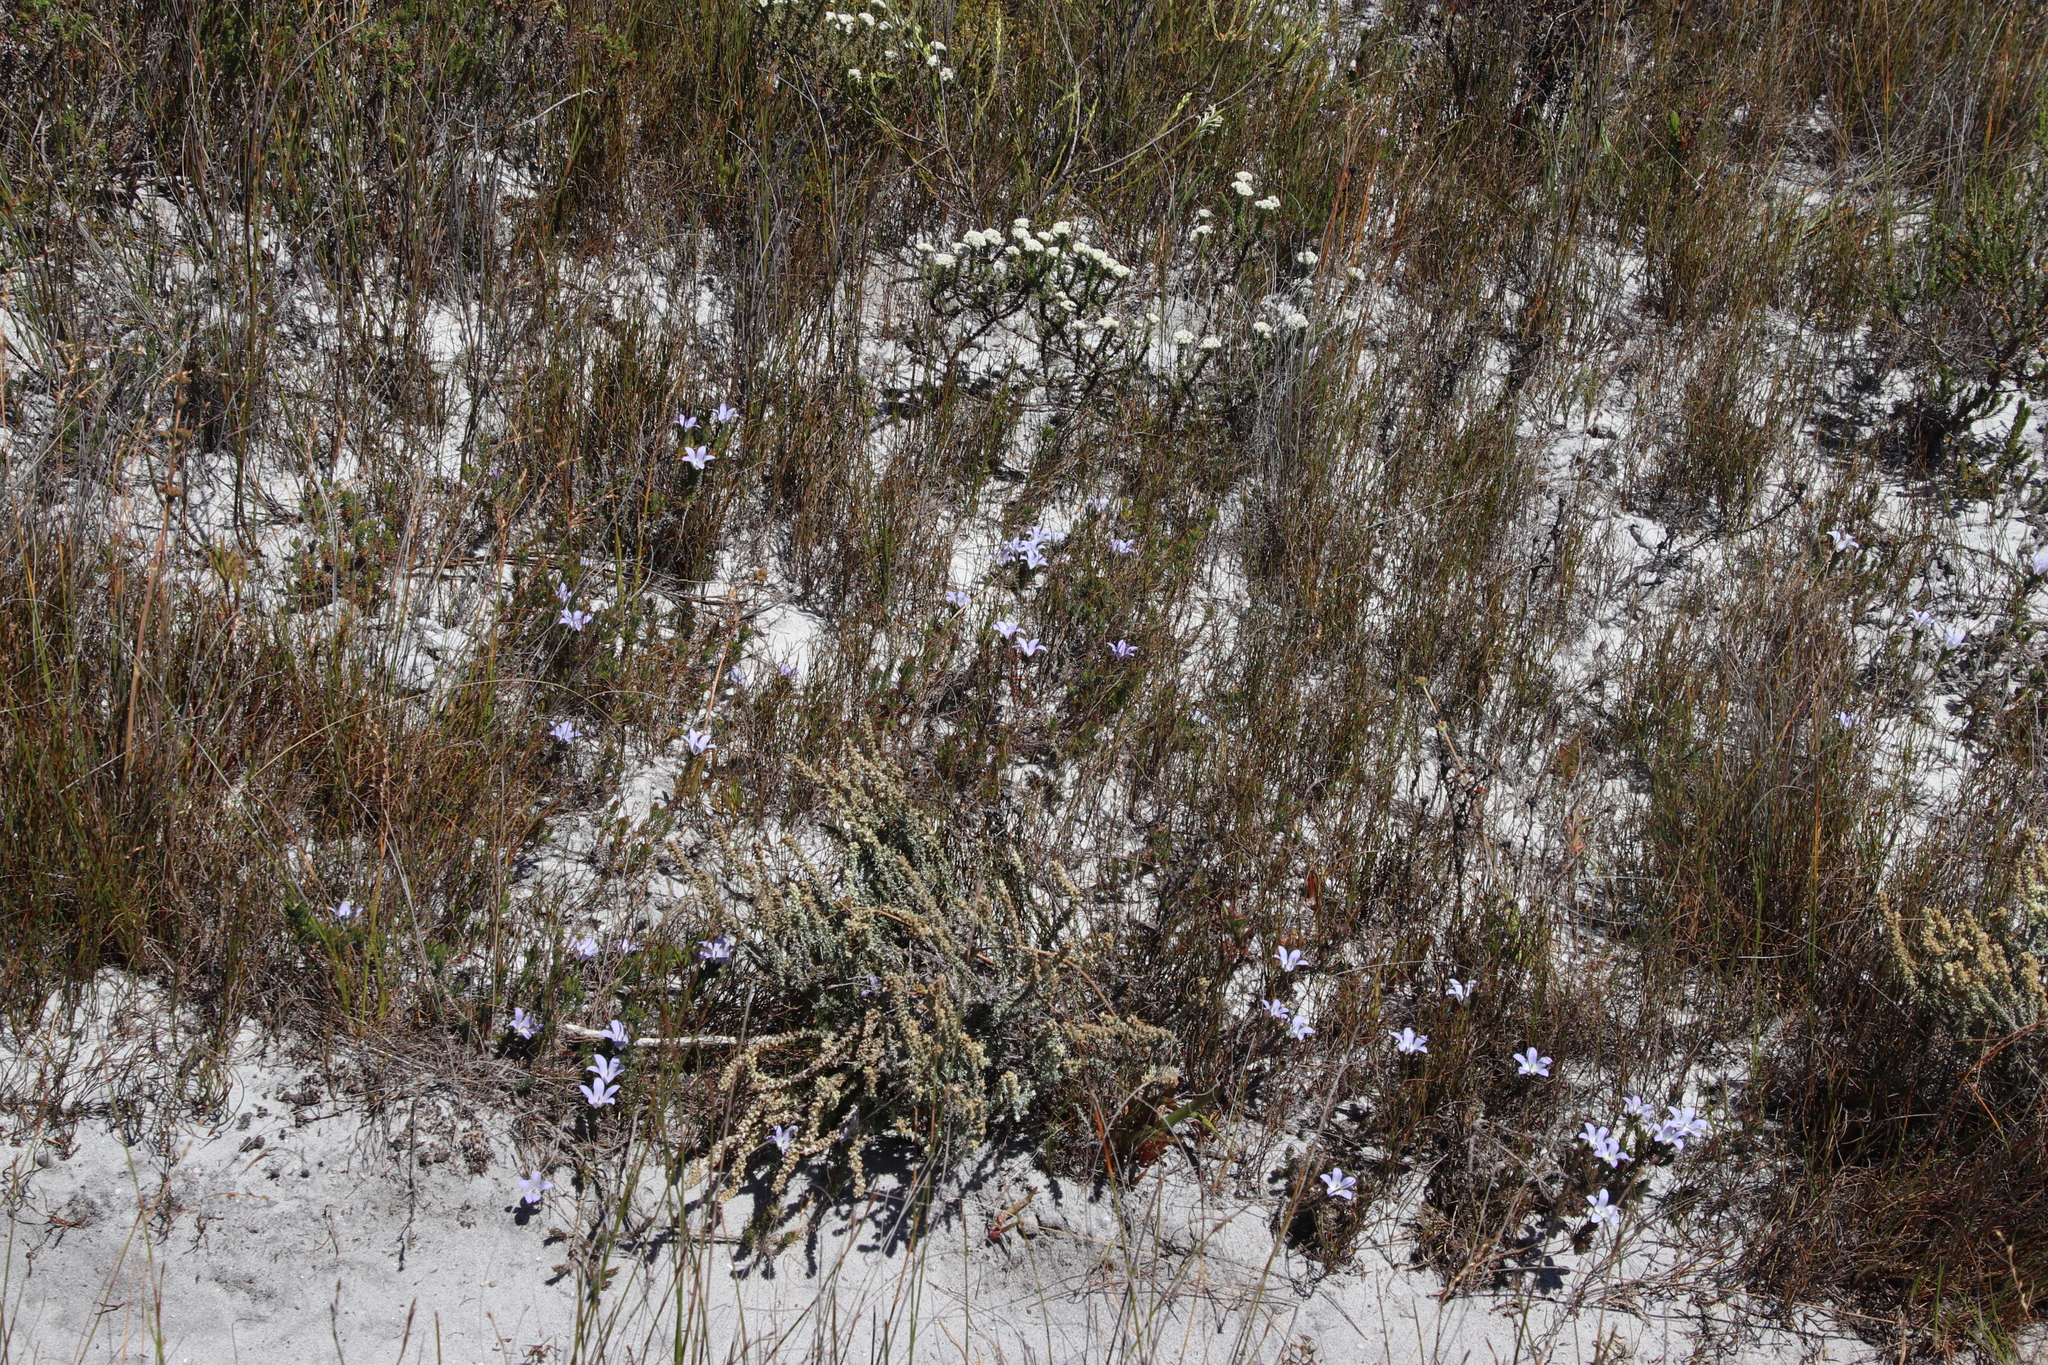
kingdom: Plantae
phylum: Tracheophyta
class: Magnoliopsida
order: Asterales
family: Campanulaceae
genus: Roella
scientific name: Roella prostrata
